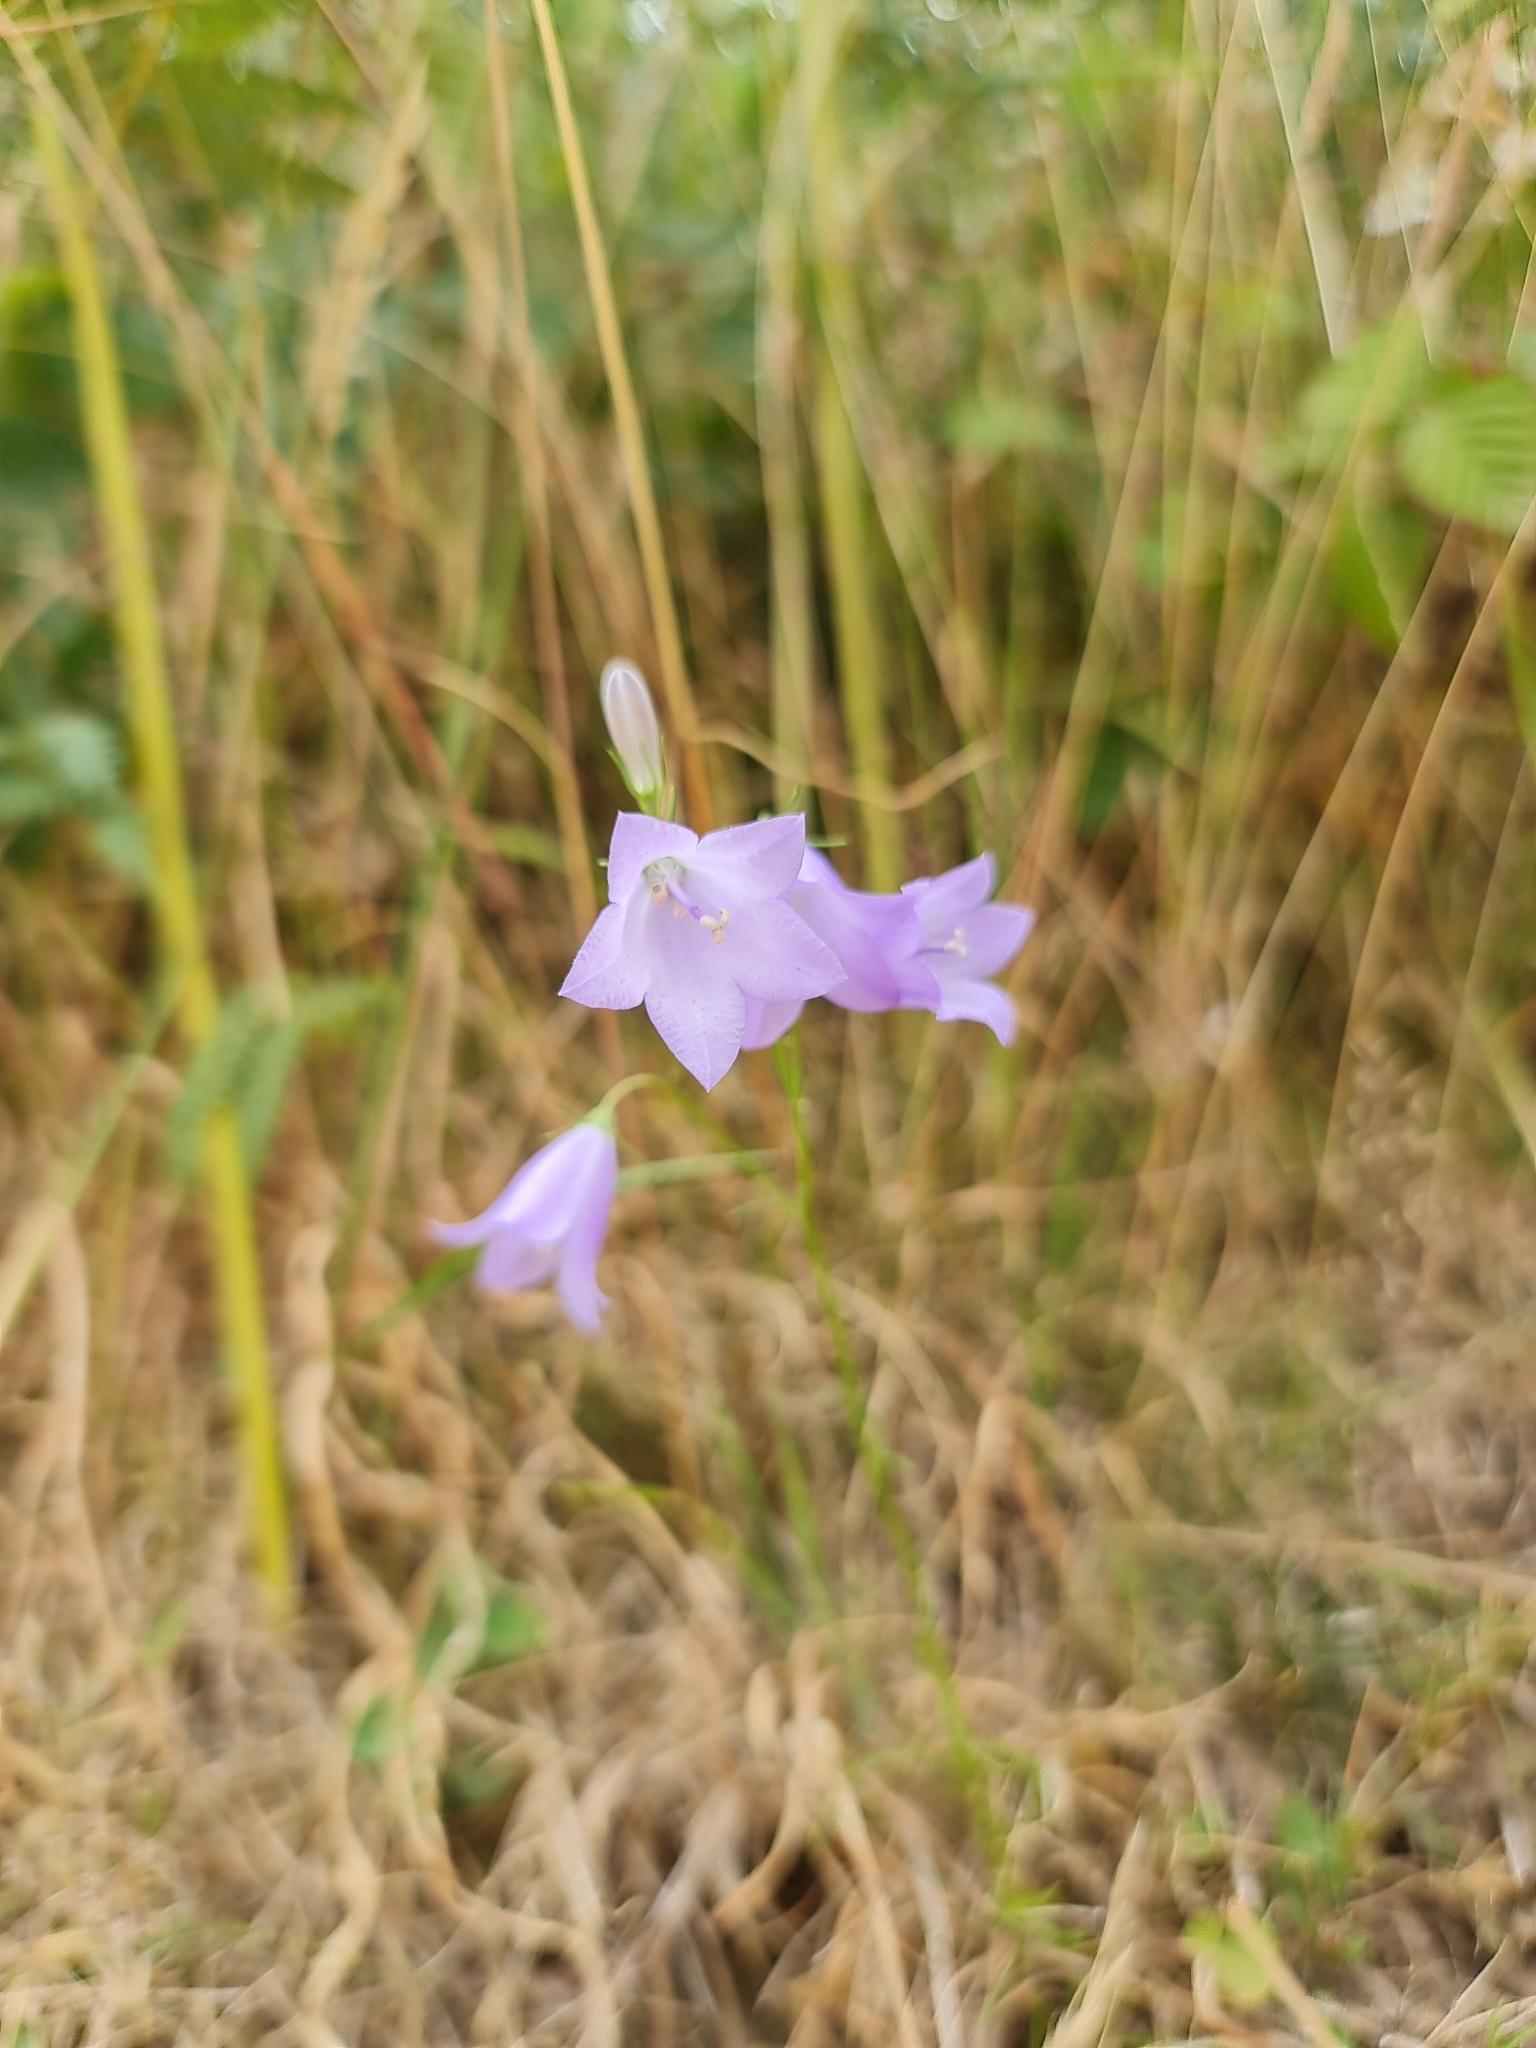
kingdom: Plantae
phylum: Tracheophyta
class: Magnoliopsida
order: Asterales
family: Campanulaceae
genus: Campanula
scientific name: Campanula rotundifolia
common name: Harebell
